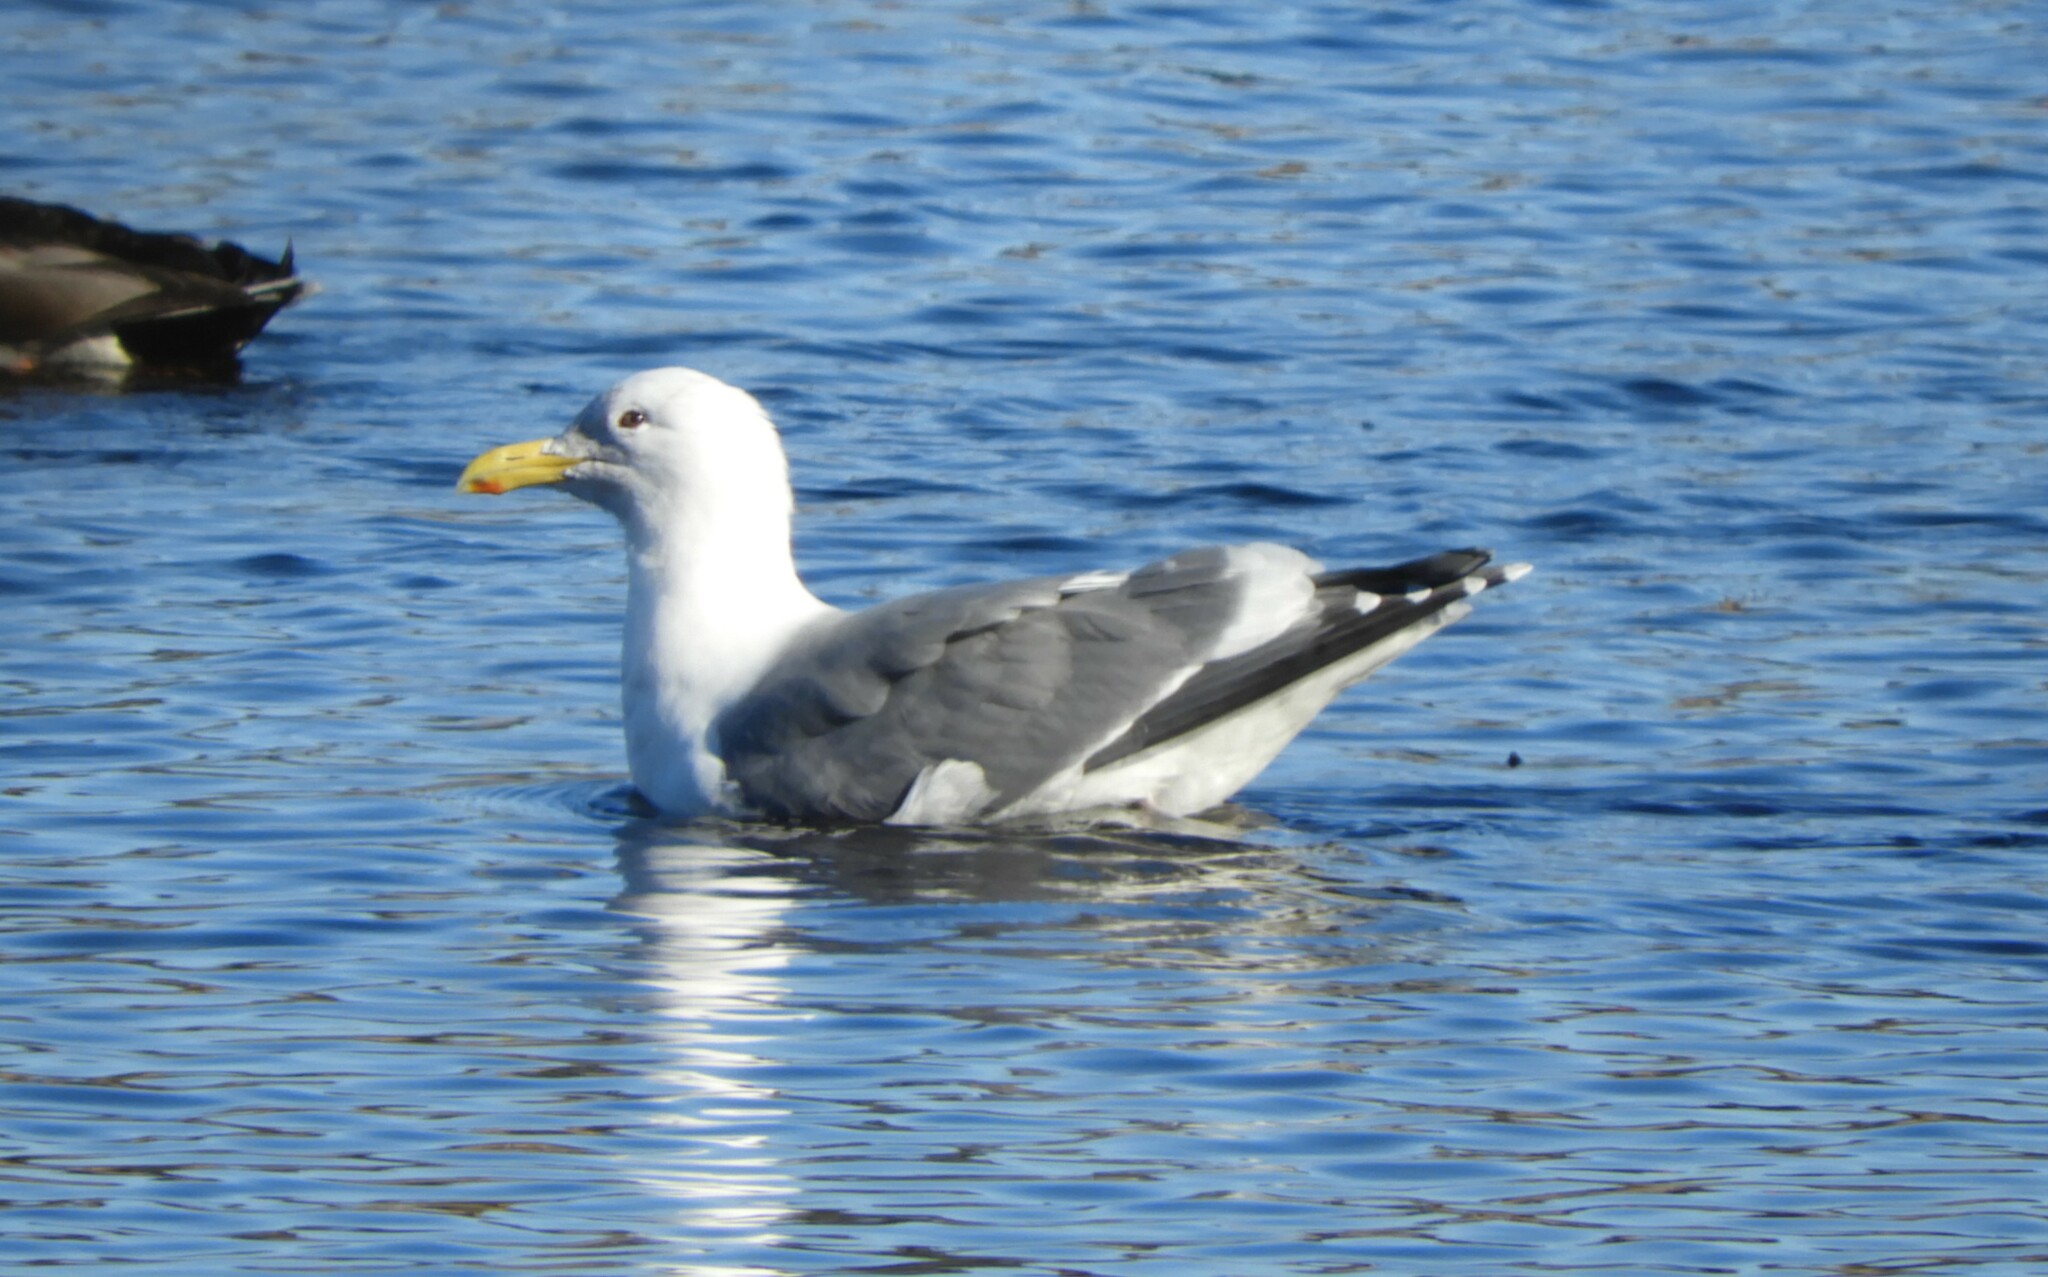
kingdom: Animalia
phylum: Chordata
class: Aves
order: Charadriiformes
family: Laridae
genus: Larus
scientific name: Larus
